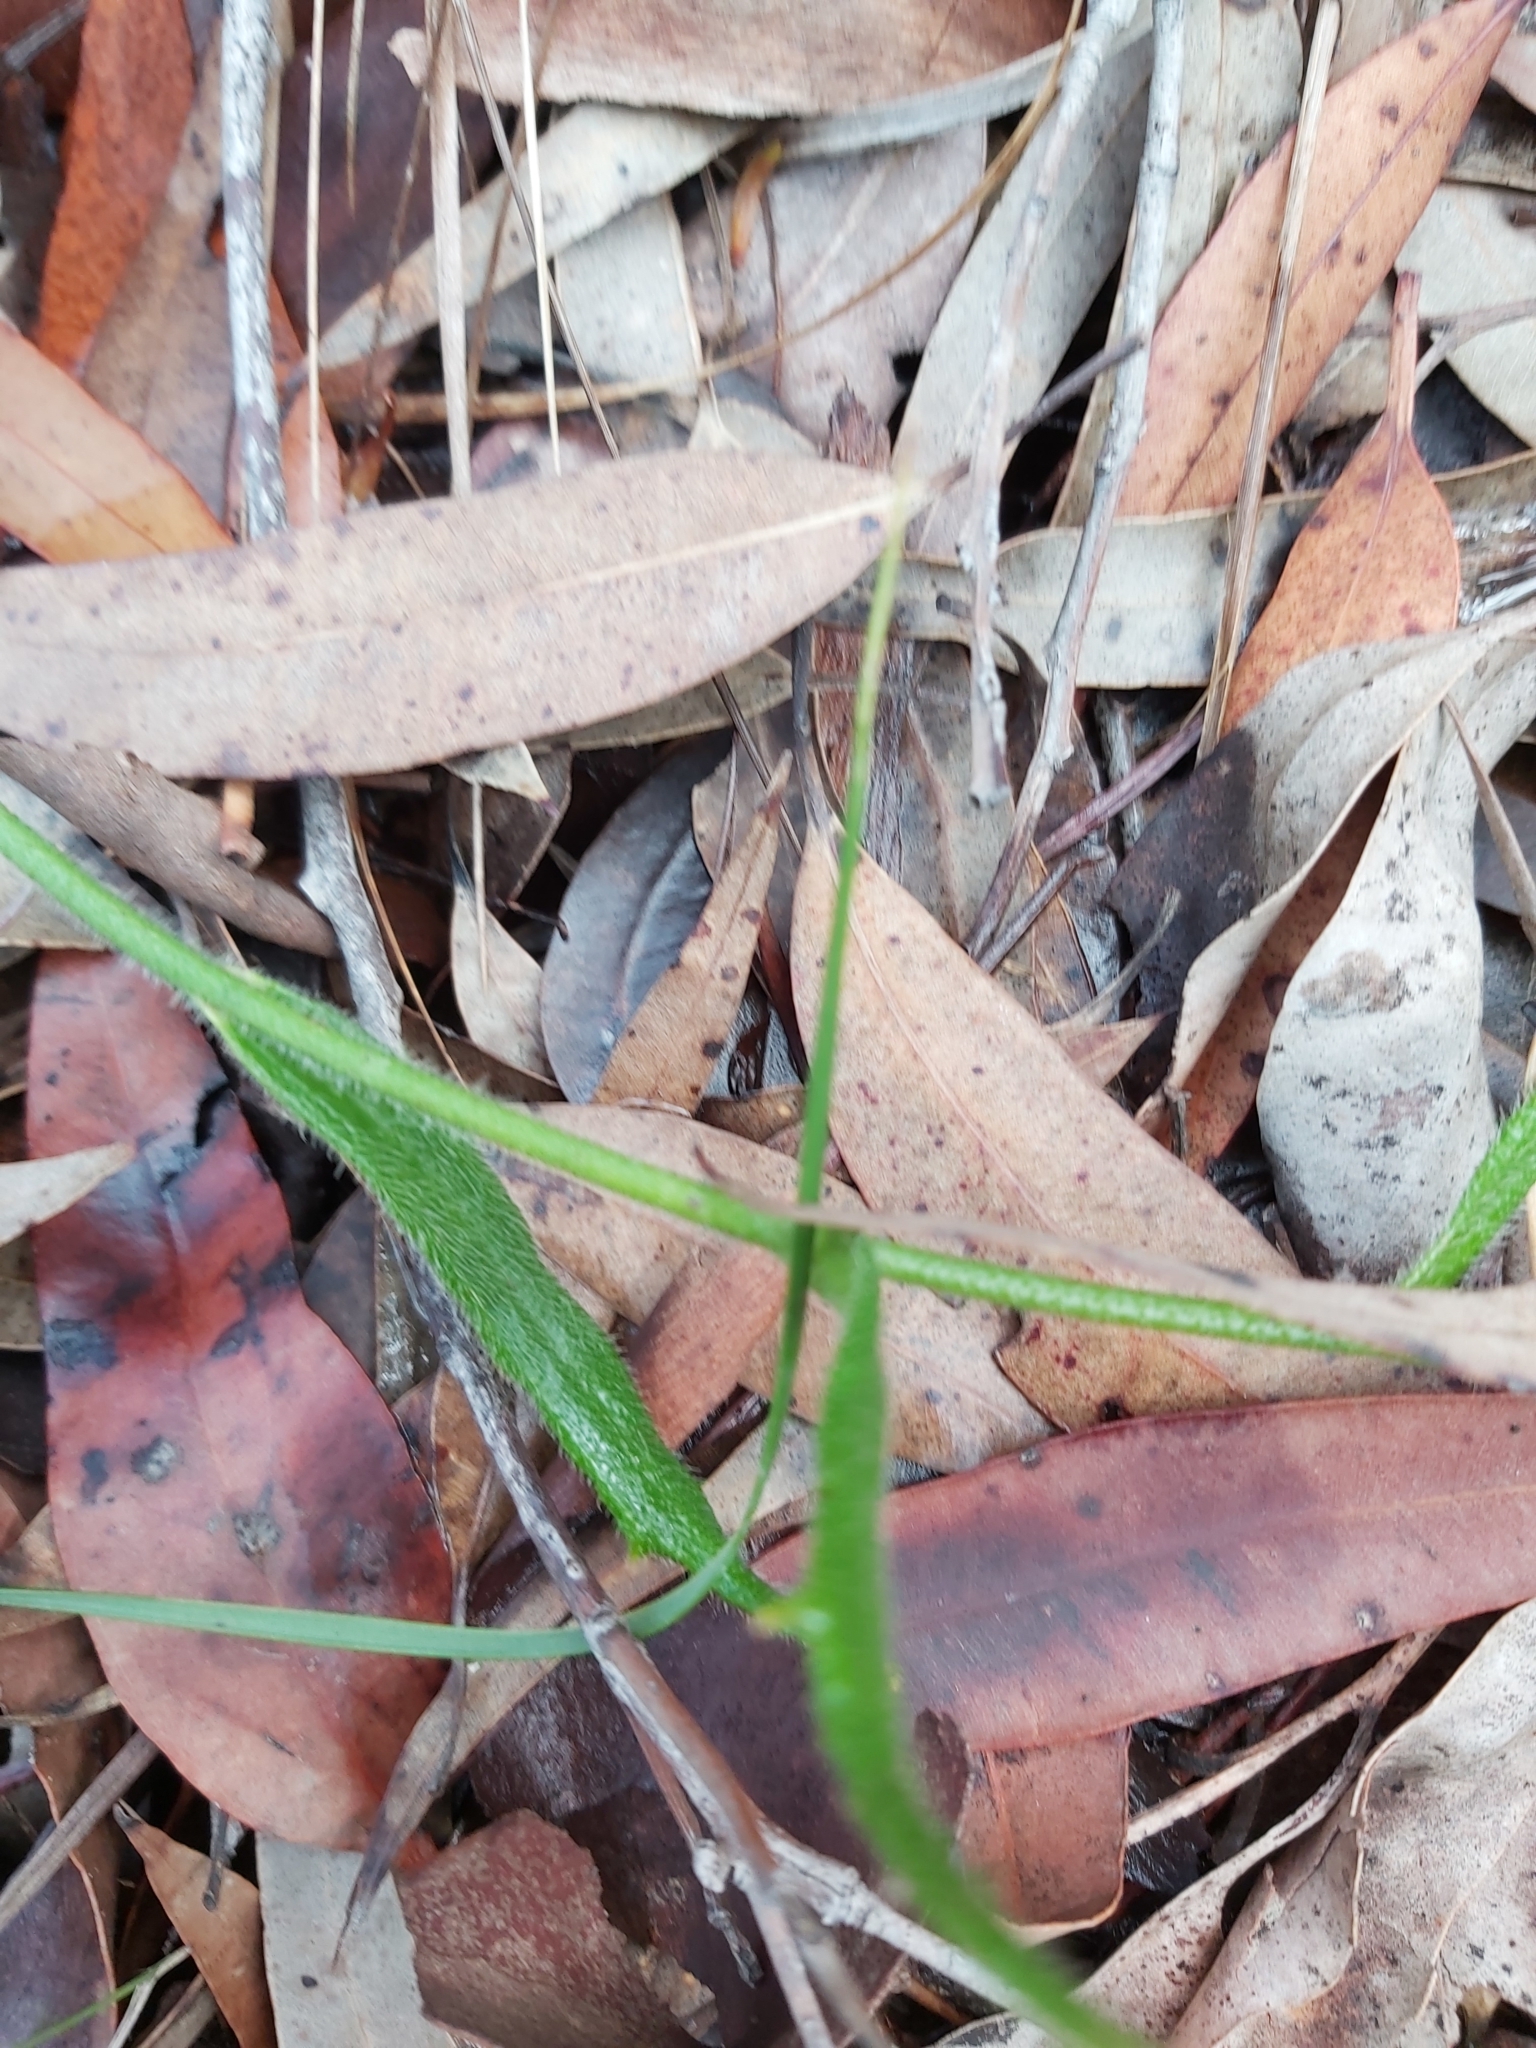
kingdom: Plantae
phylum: Tracheophyta
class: Magnoliopsida
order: Asterales
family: Goodeniaceae
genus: Scaevola
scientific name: Scaevola ramosissima
